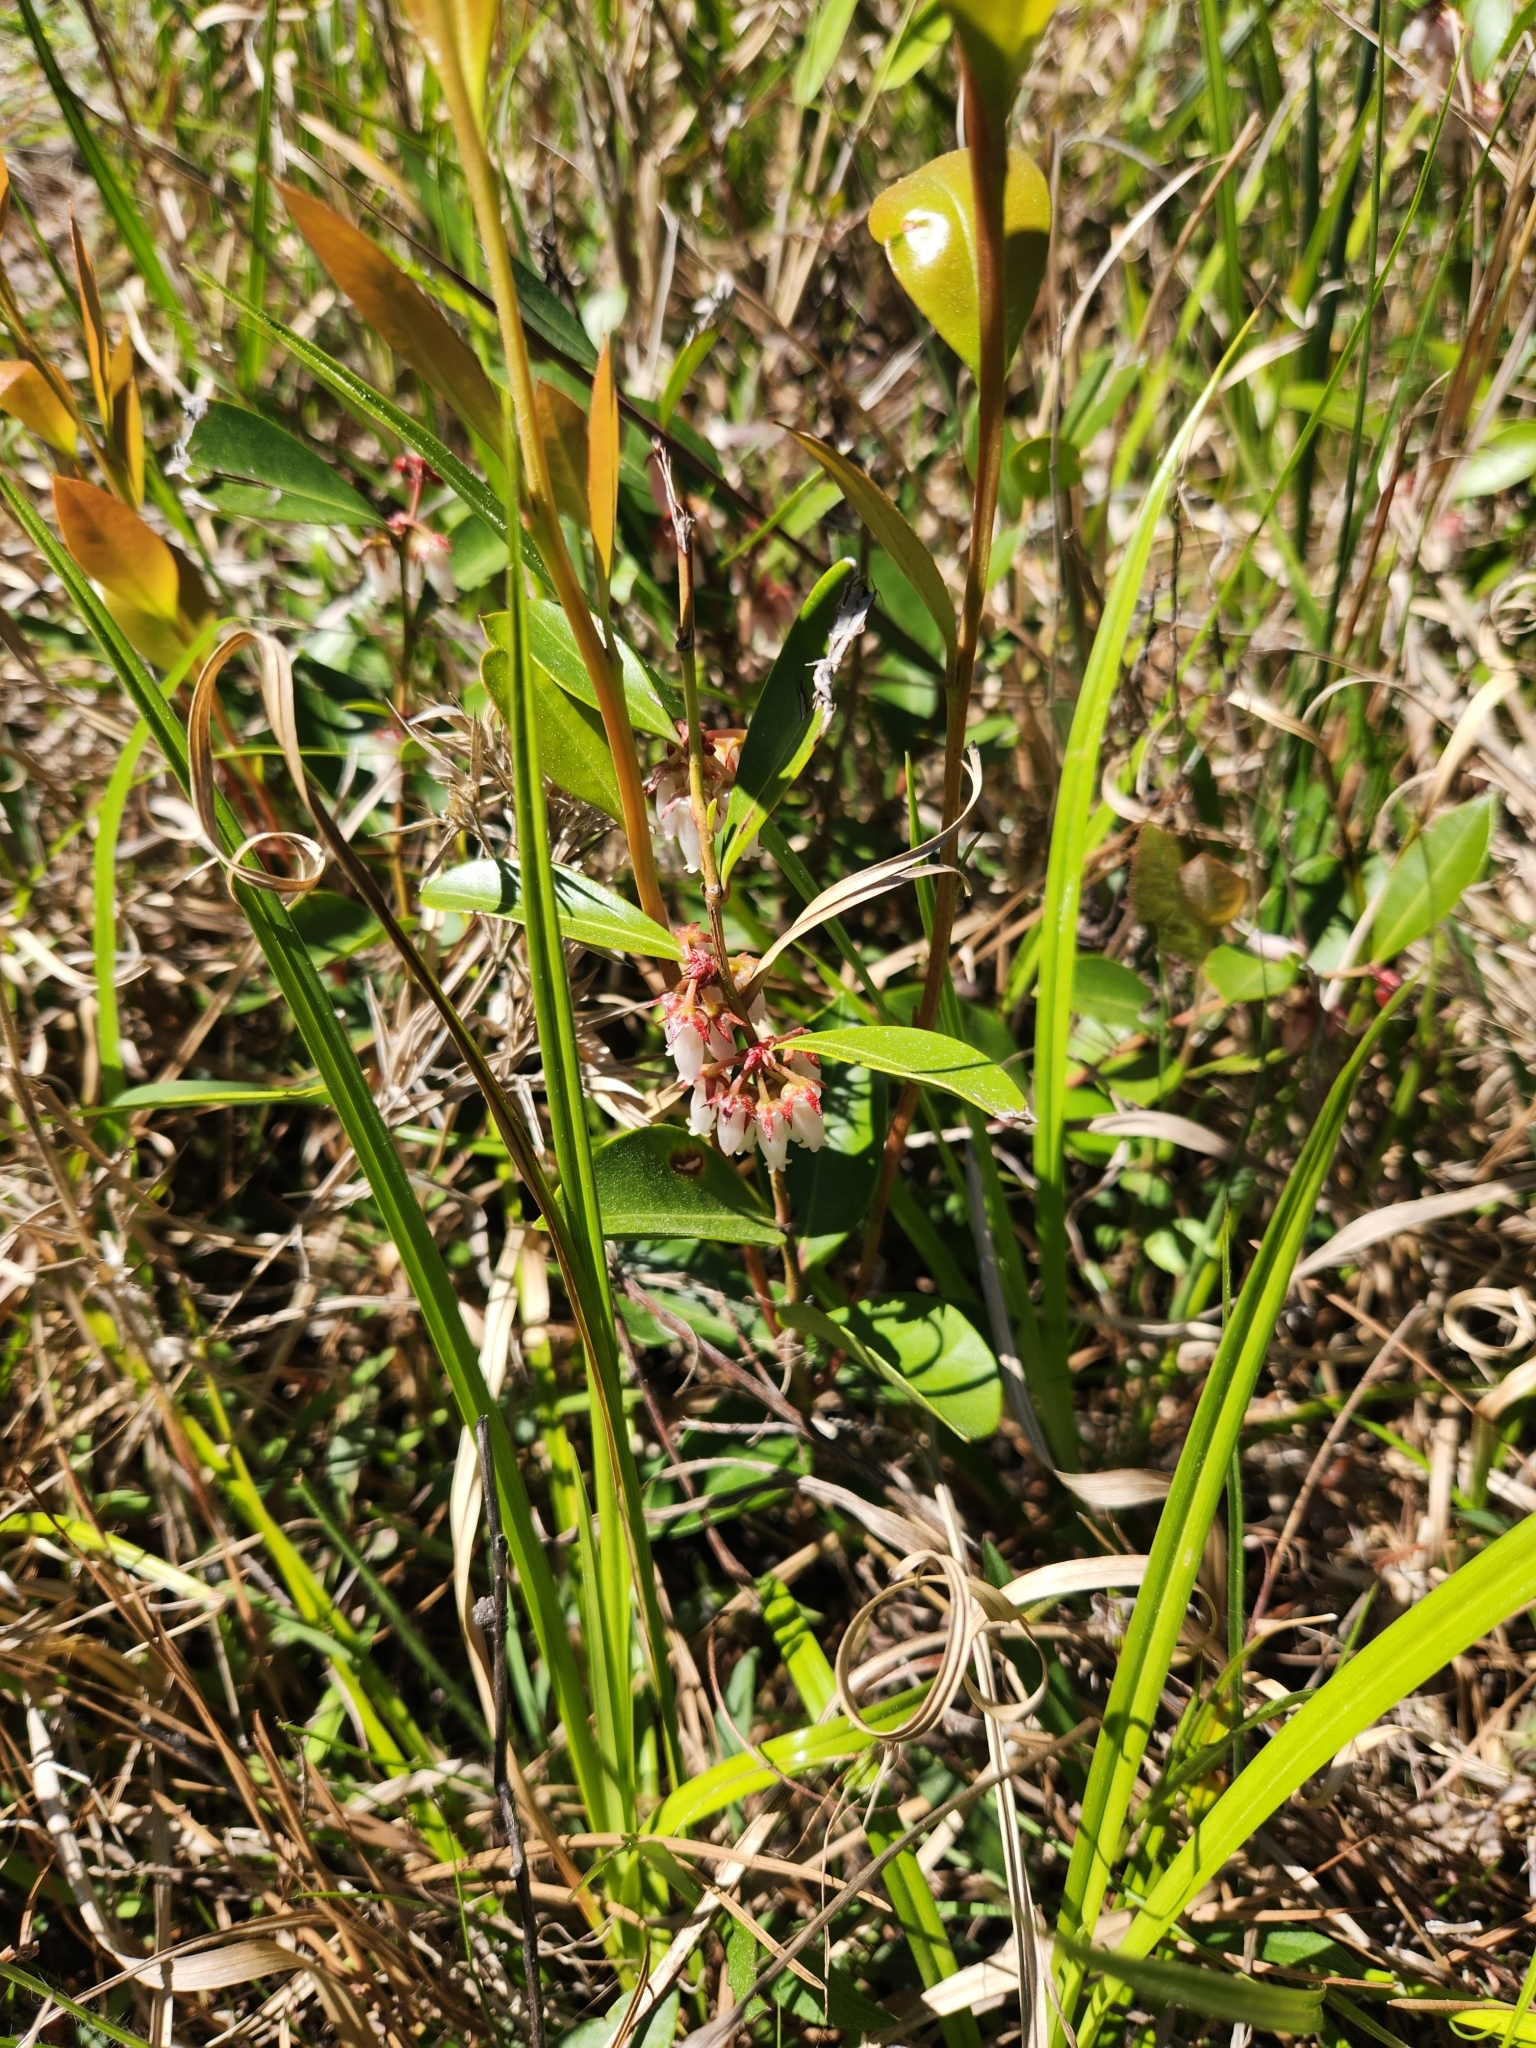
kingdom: Plantae
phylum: Tracheophyta
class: Magnoliopsida
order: Ericales
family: Ericaceae
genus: Lyonia
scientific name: Lyonia lucida
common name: Fetterbush
